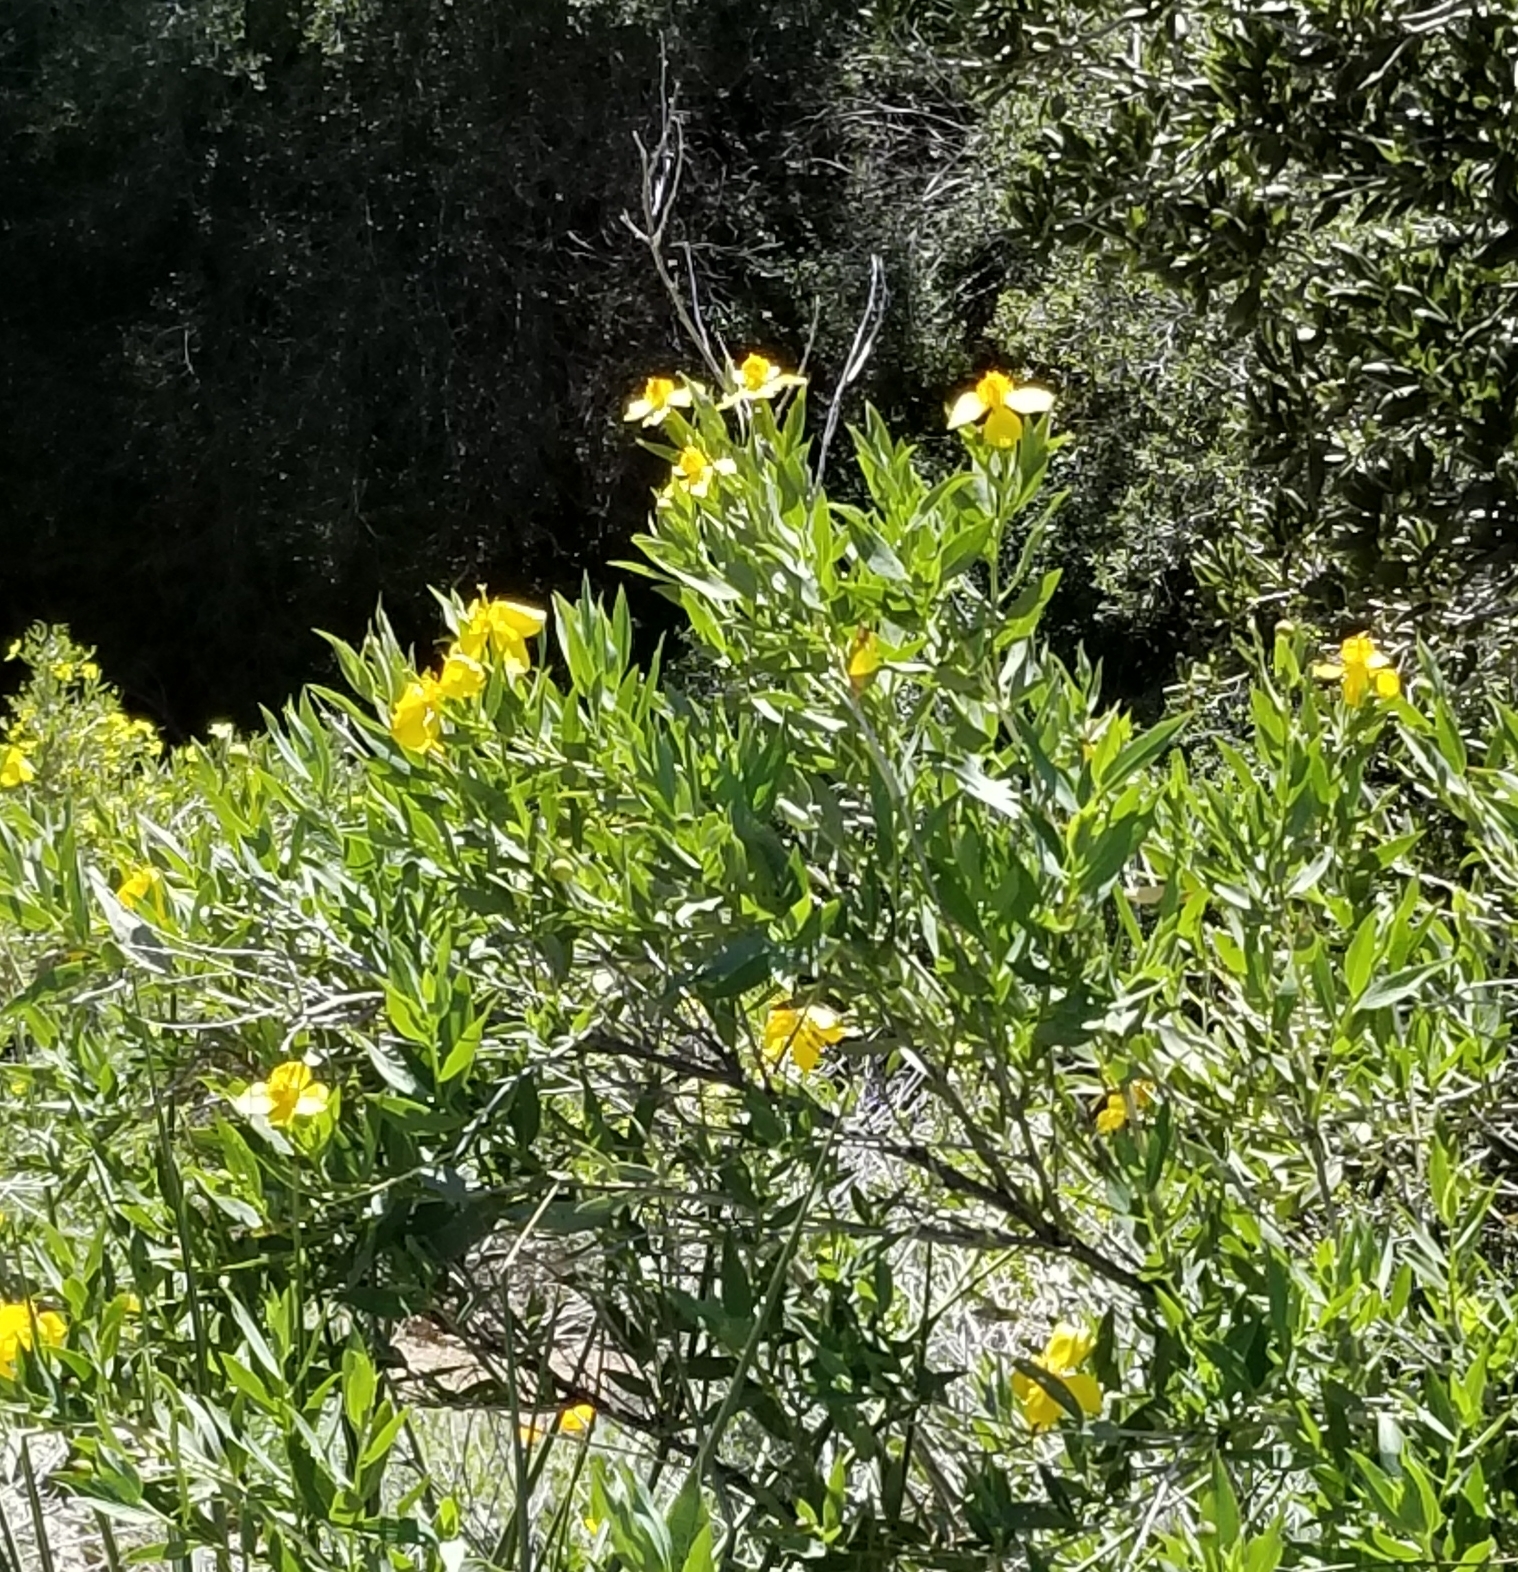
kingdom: Plantae
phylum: Tracheophyta
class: Magnoliopsida
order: Ranunculales
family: Papaveraceae
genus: Dendromecon
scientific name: Dendromecon rigida
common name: Tree poppy
